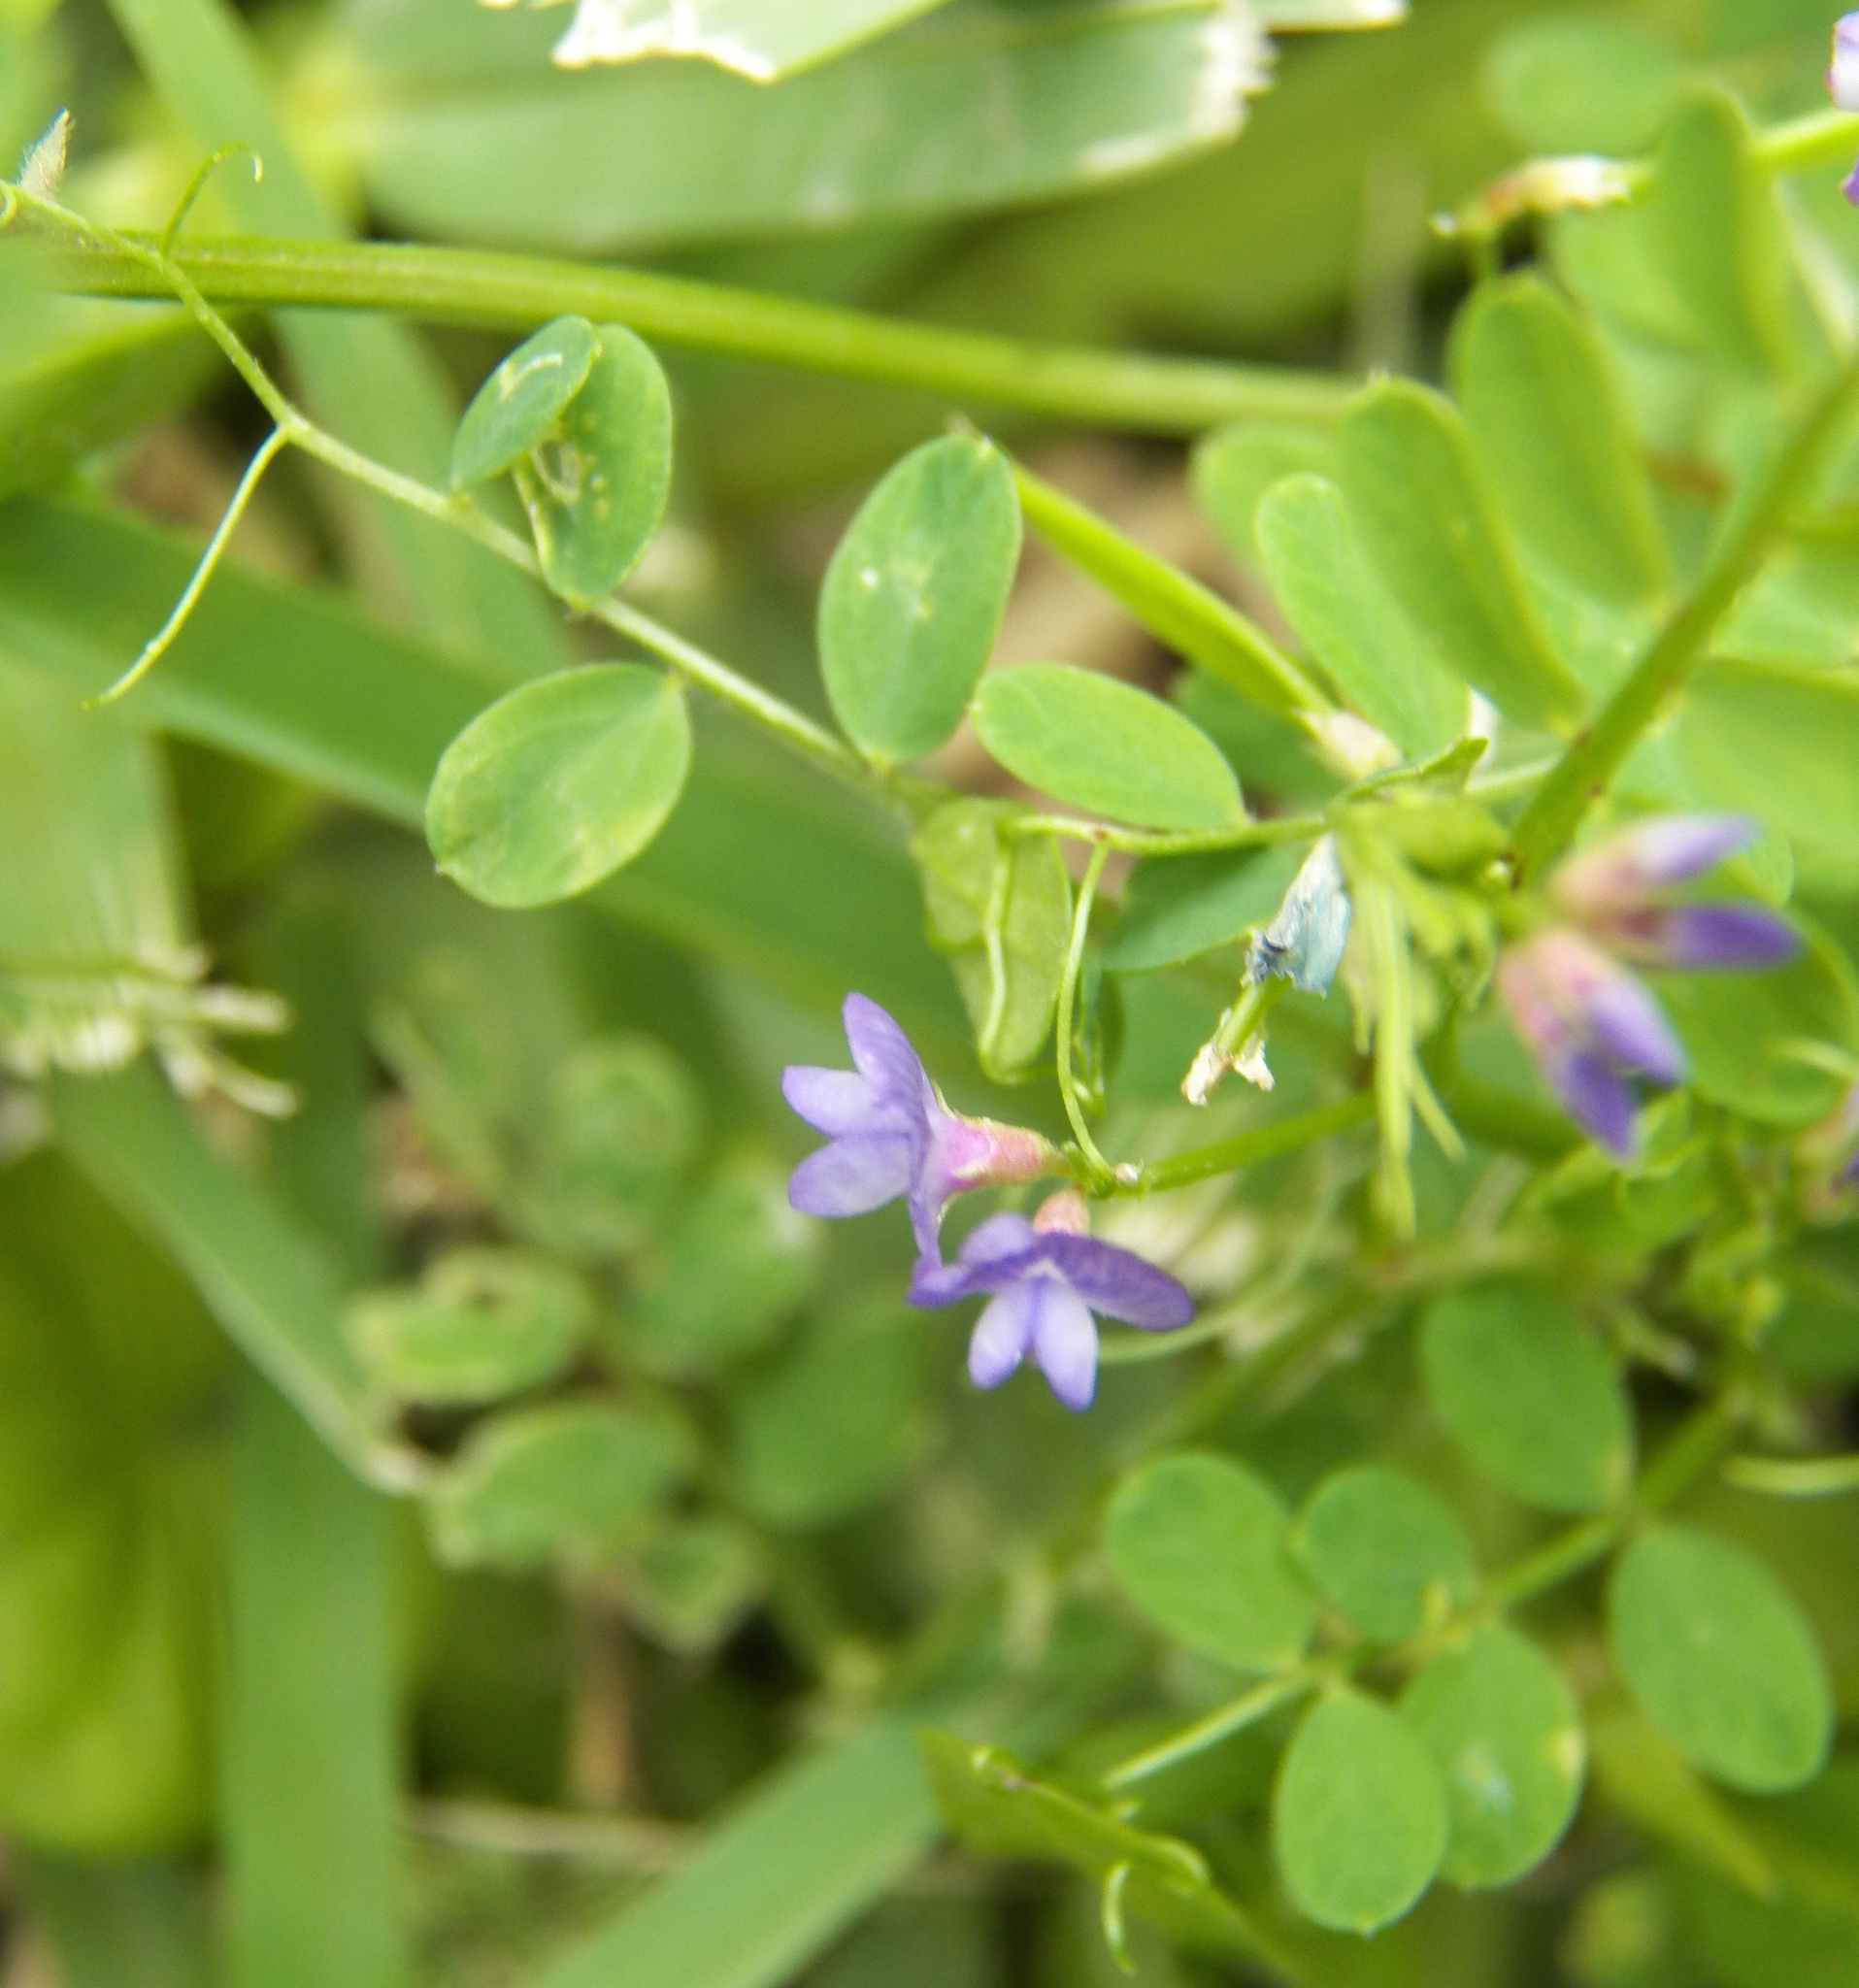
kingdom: Plantae
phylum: Tracheophyta
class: Magnoliopsida
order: Fabales
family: Fabaceae
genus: Vicia
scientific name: Vicia ludoviciana
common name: Louisiana vetch
